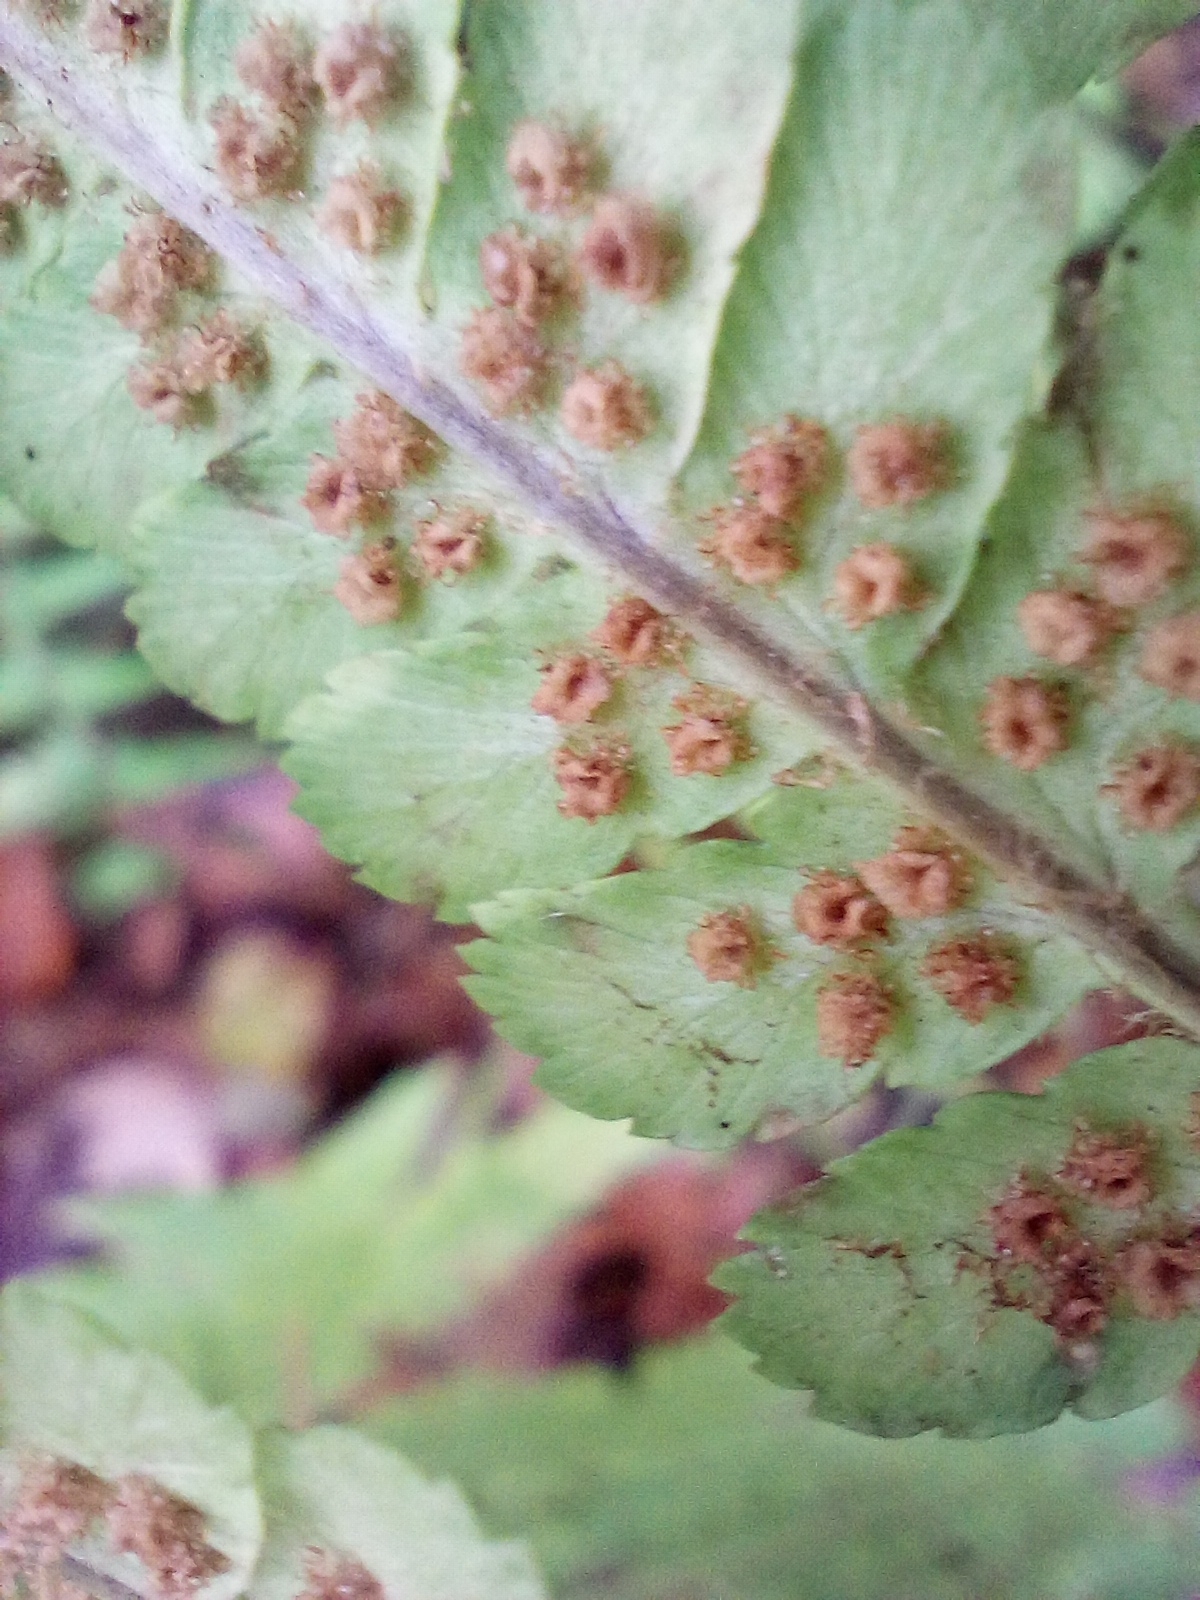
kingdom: Plantae
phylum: Tracheophyta
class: Polypodiopsida
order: Polypodiales
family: Dryopteridaceae
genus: Dryopteris
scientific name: Dryopteris filix-mas
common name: Male fern
